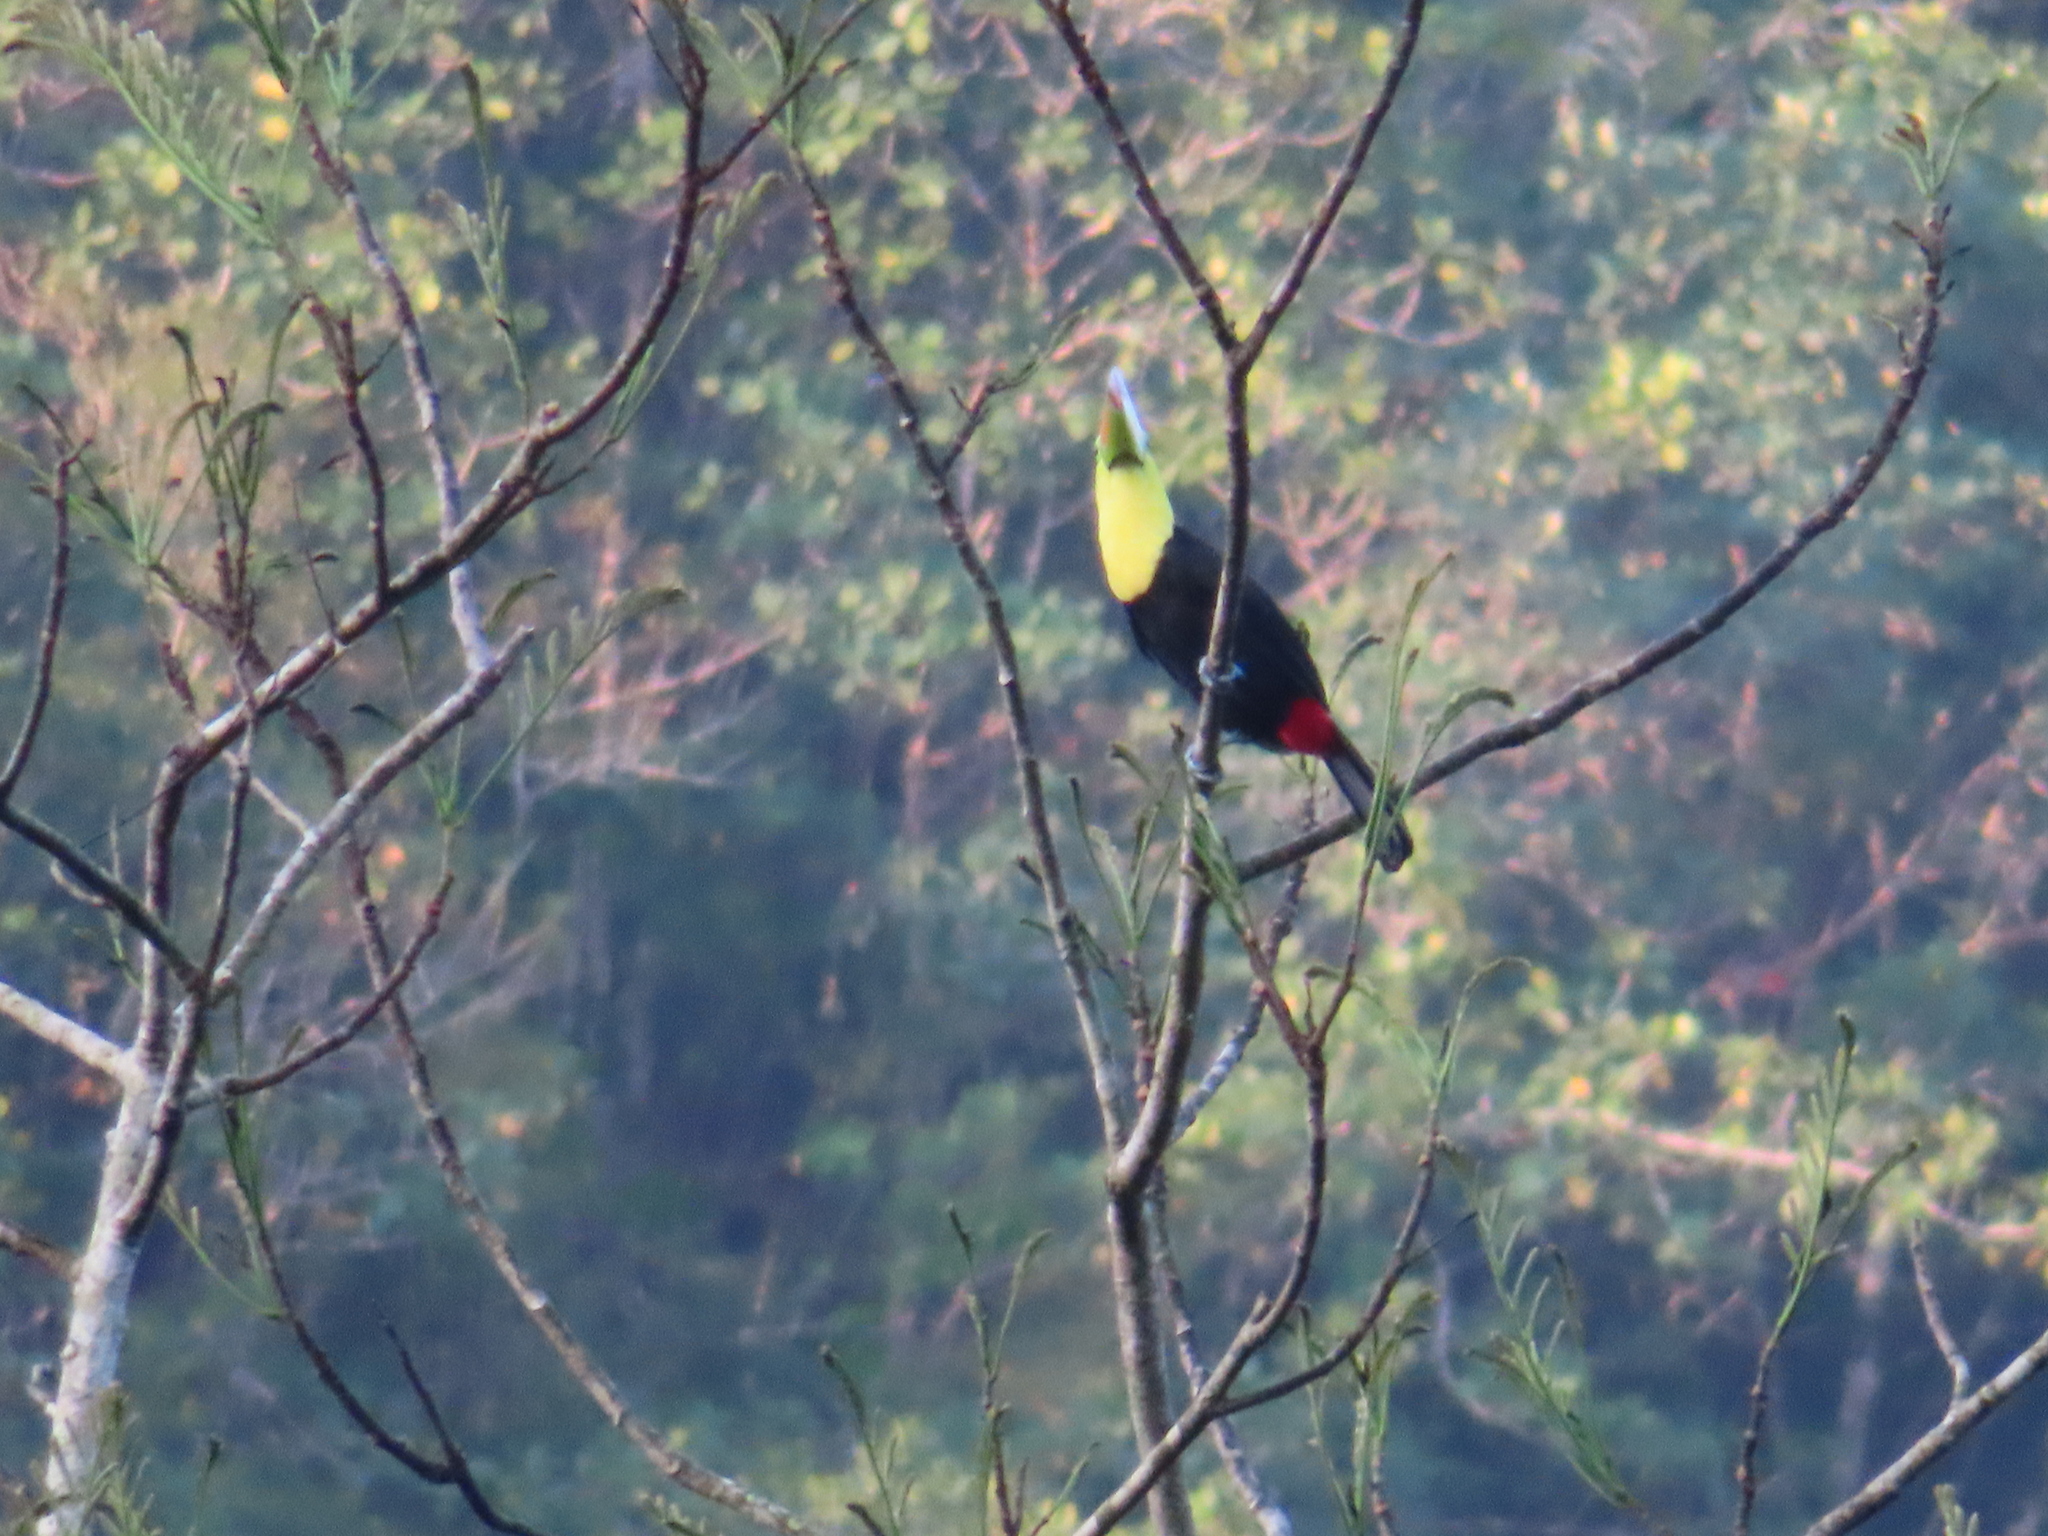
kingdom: Animalia
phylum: Chordata
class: Aves
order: Piciformes
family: Ramphastidae
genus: Ramphastos
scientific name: Ramphastos sulfuratus
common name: Keel-billed toucan
